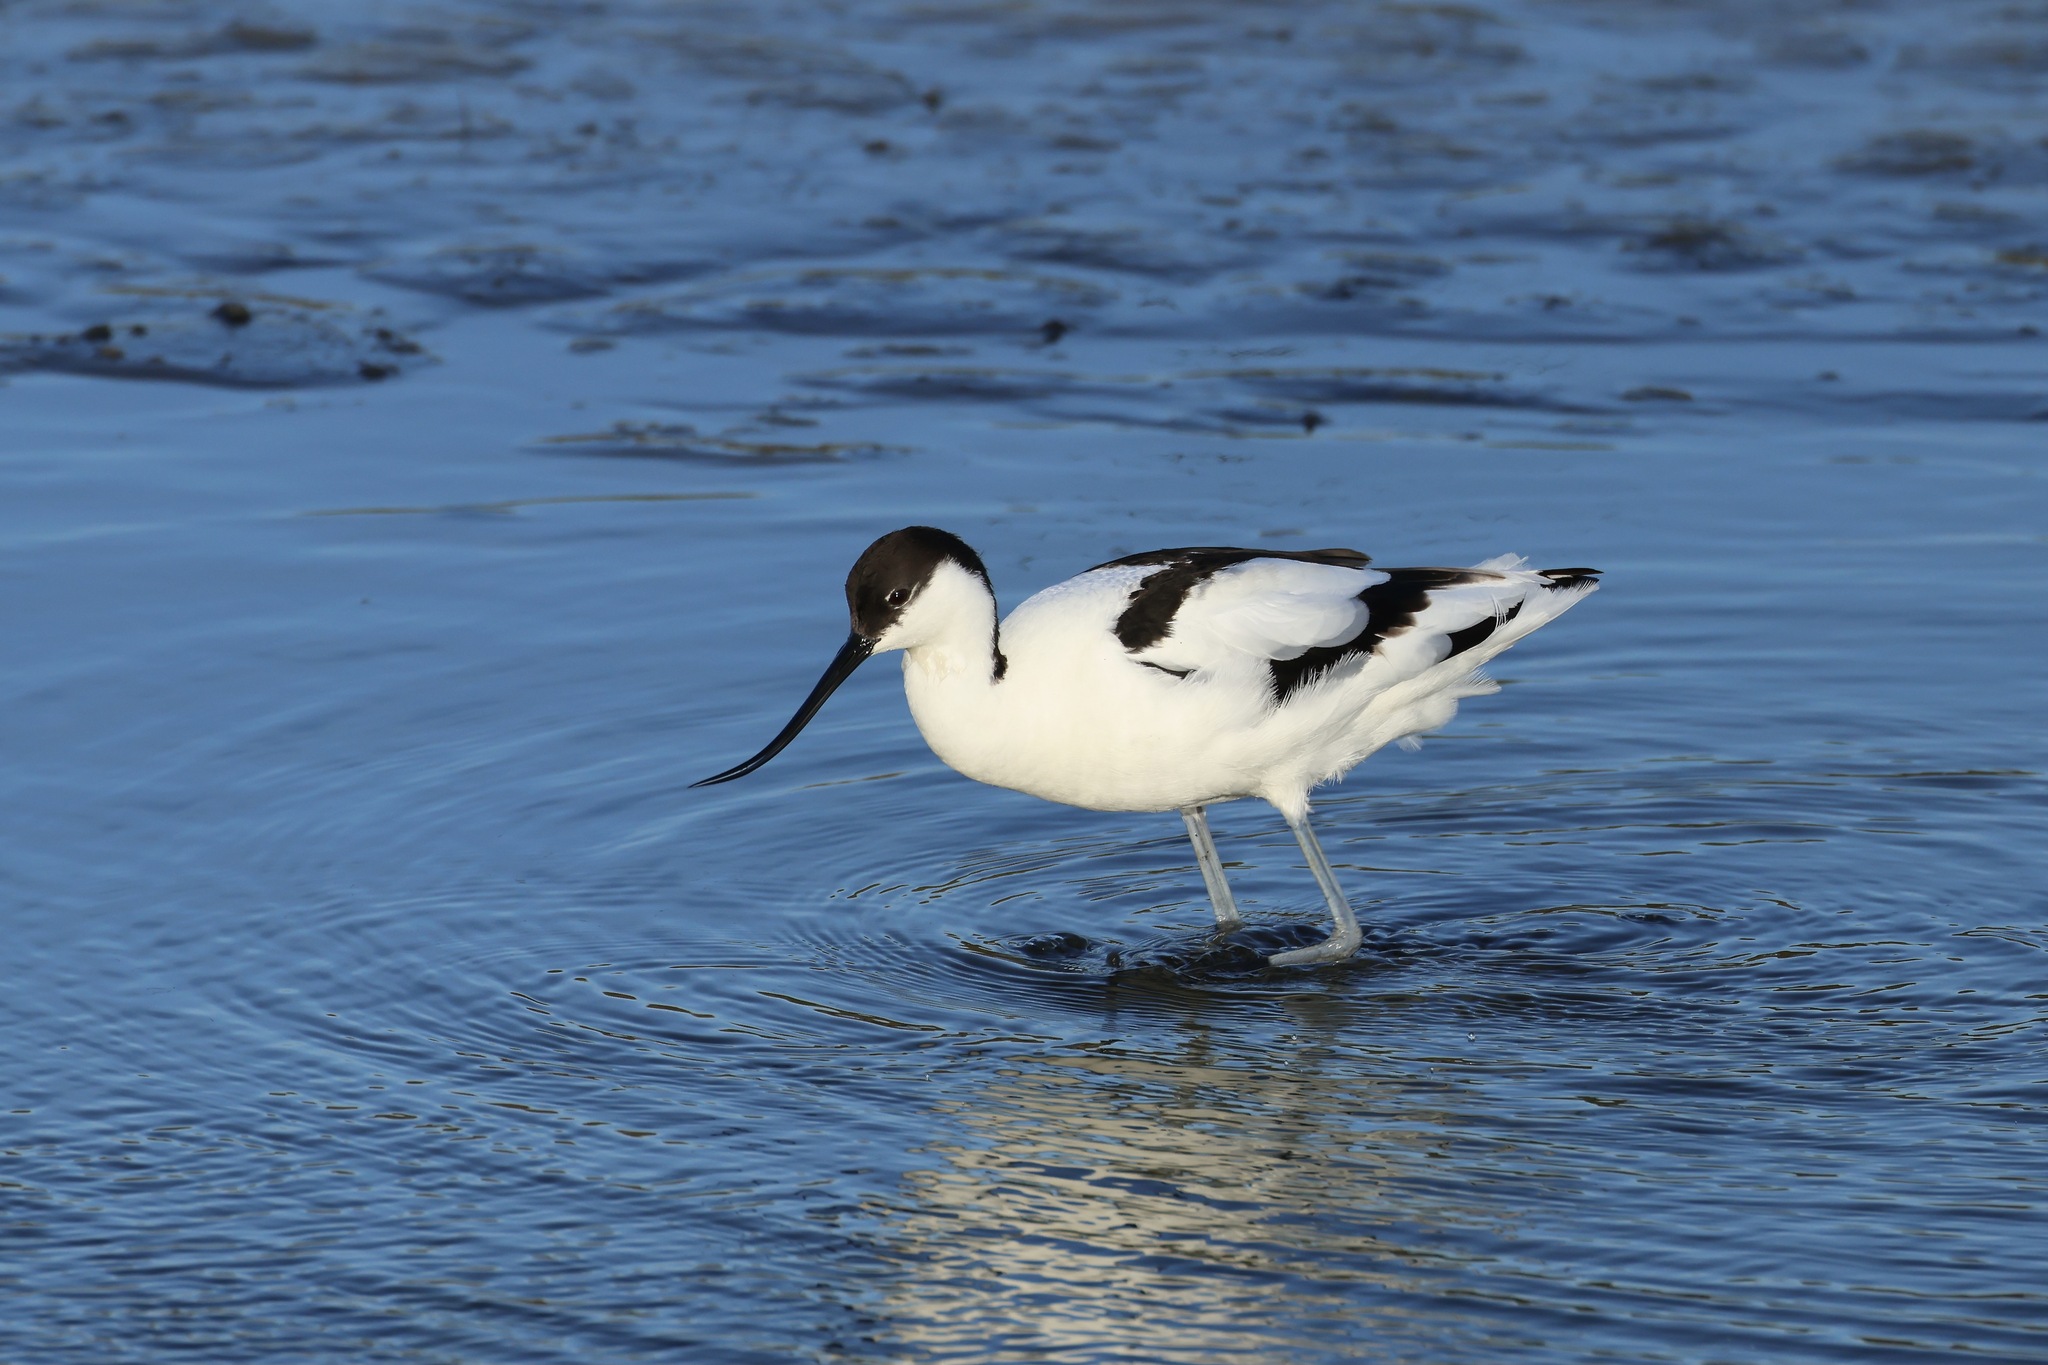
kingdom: Animalia
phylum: Chordata
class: Aves
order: Charadriiformes
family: Recurvirostridae
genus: Recurvirostra
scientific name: Recurvirostra avosetta
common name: Pied avocet
